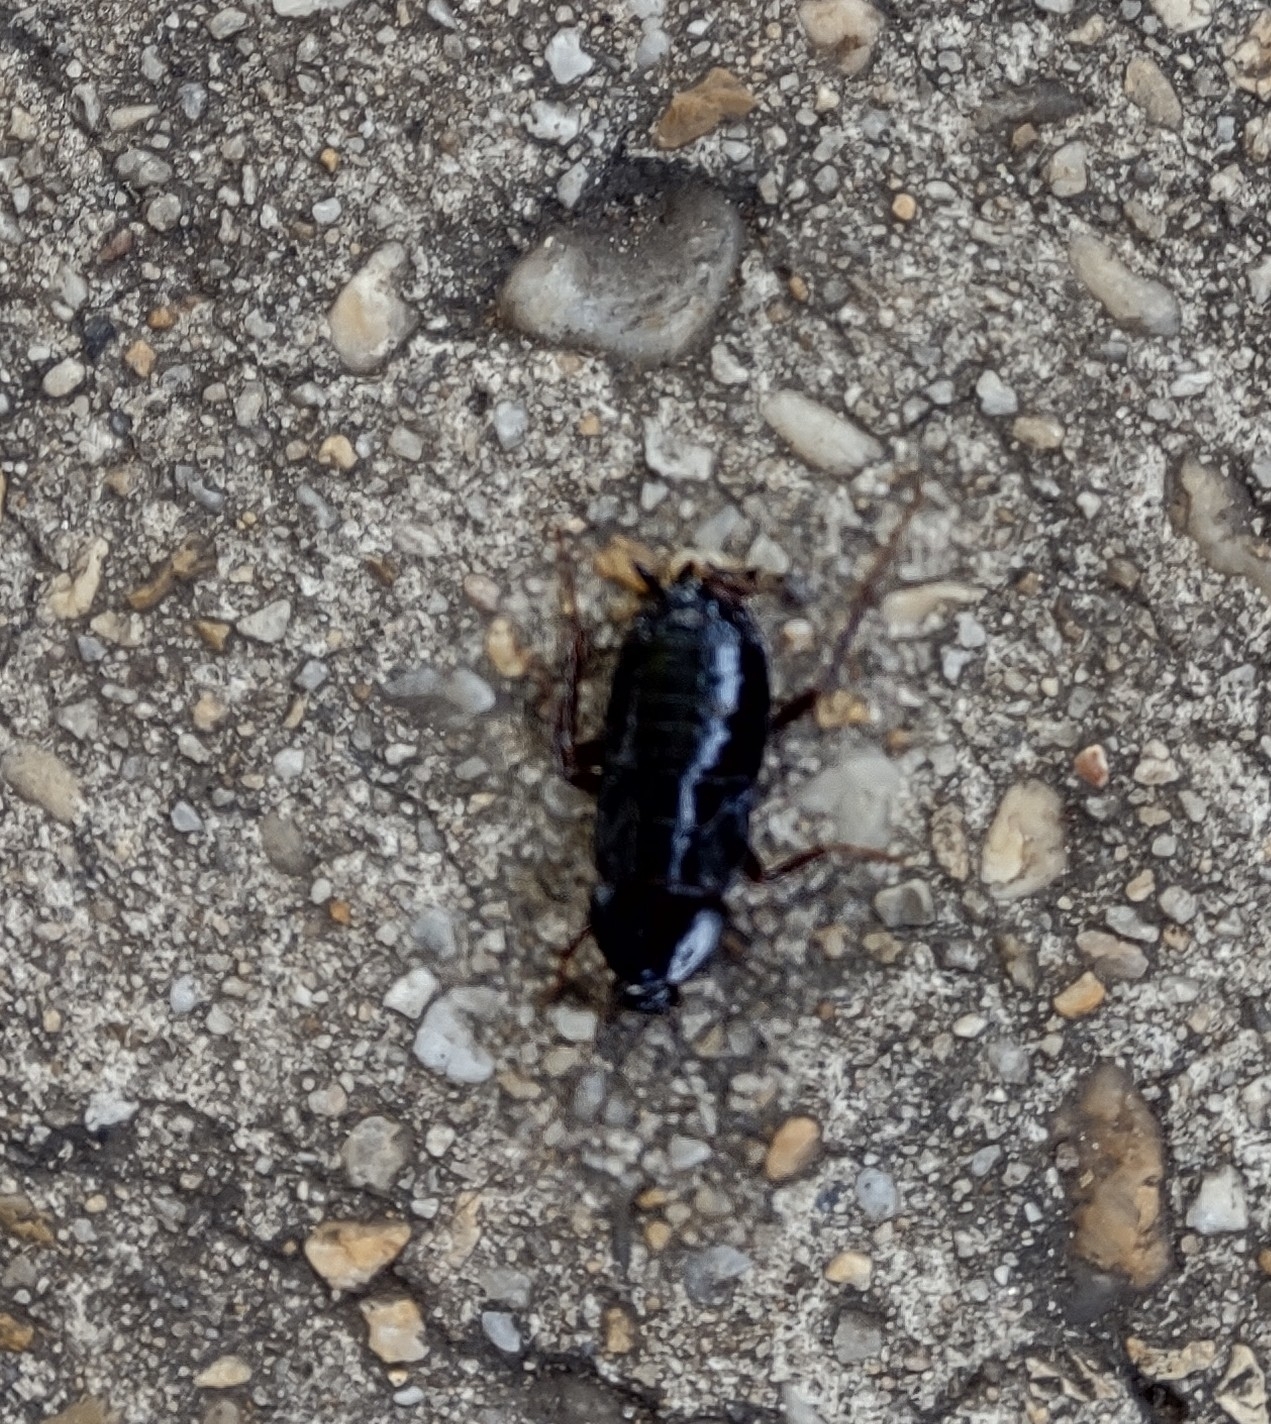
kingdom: Animalia
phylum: Arthropoda
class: Insecta
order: Blattodea
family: Blattidae
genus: Blatta
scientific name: Blatta orientalis
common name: Oriental cockroach
